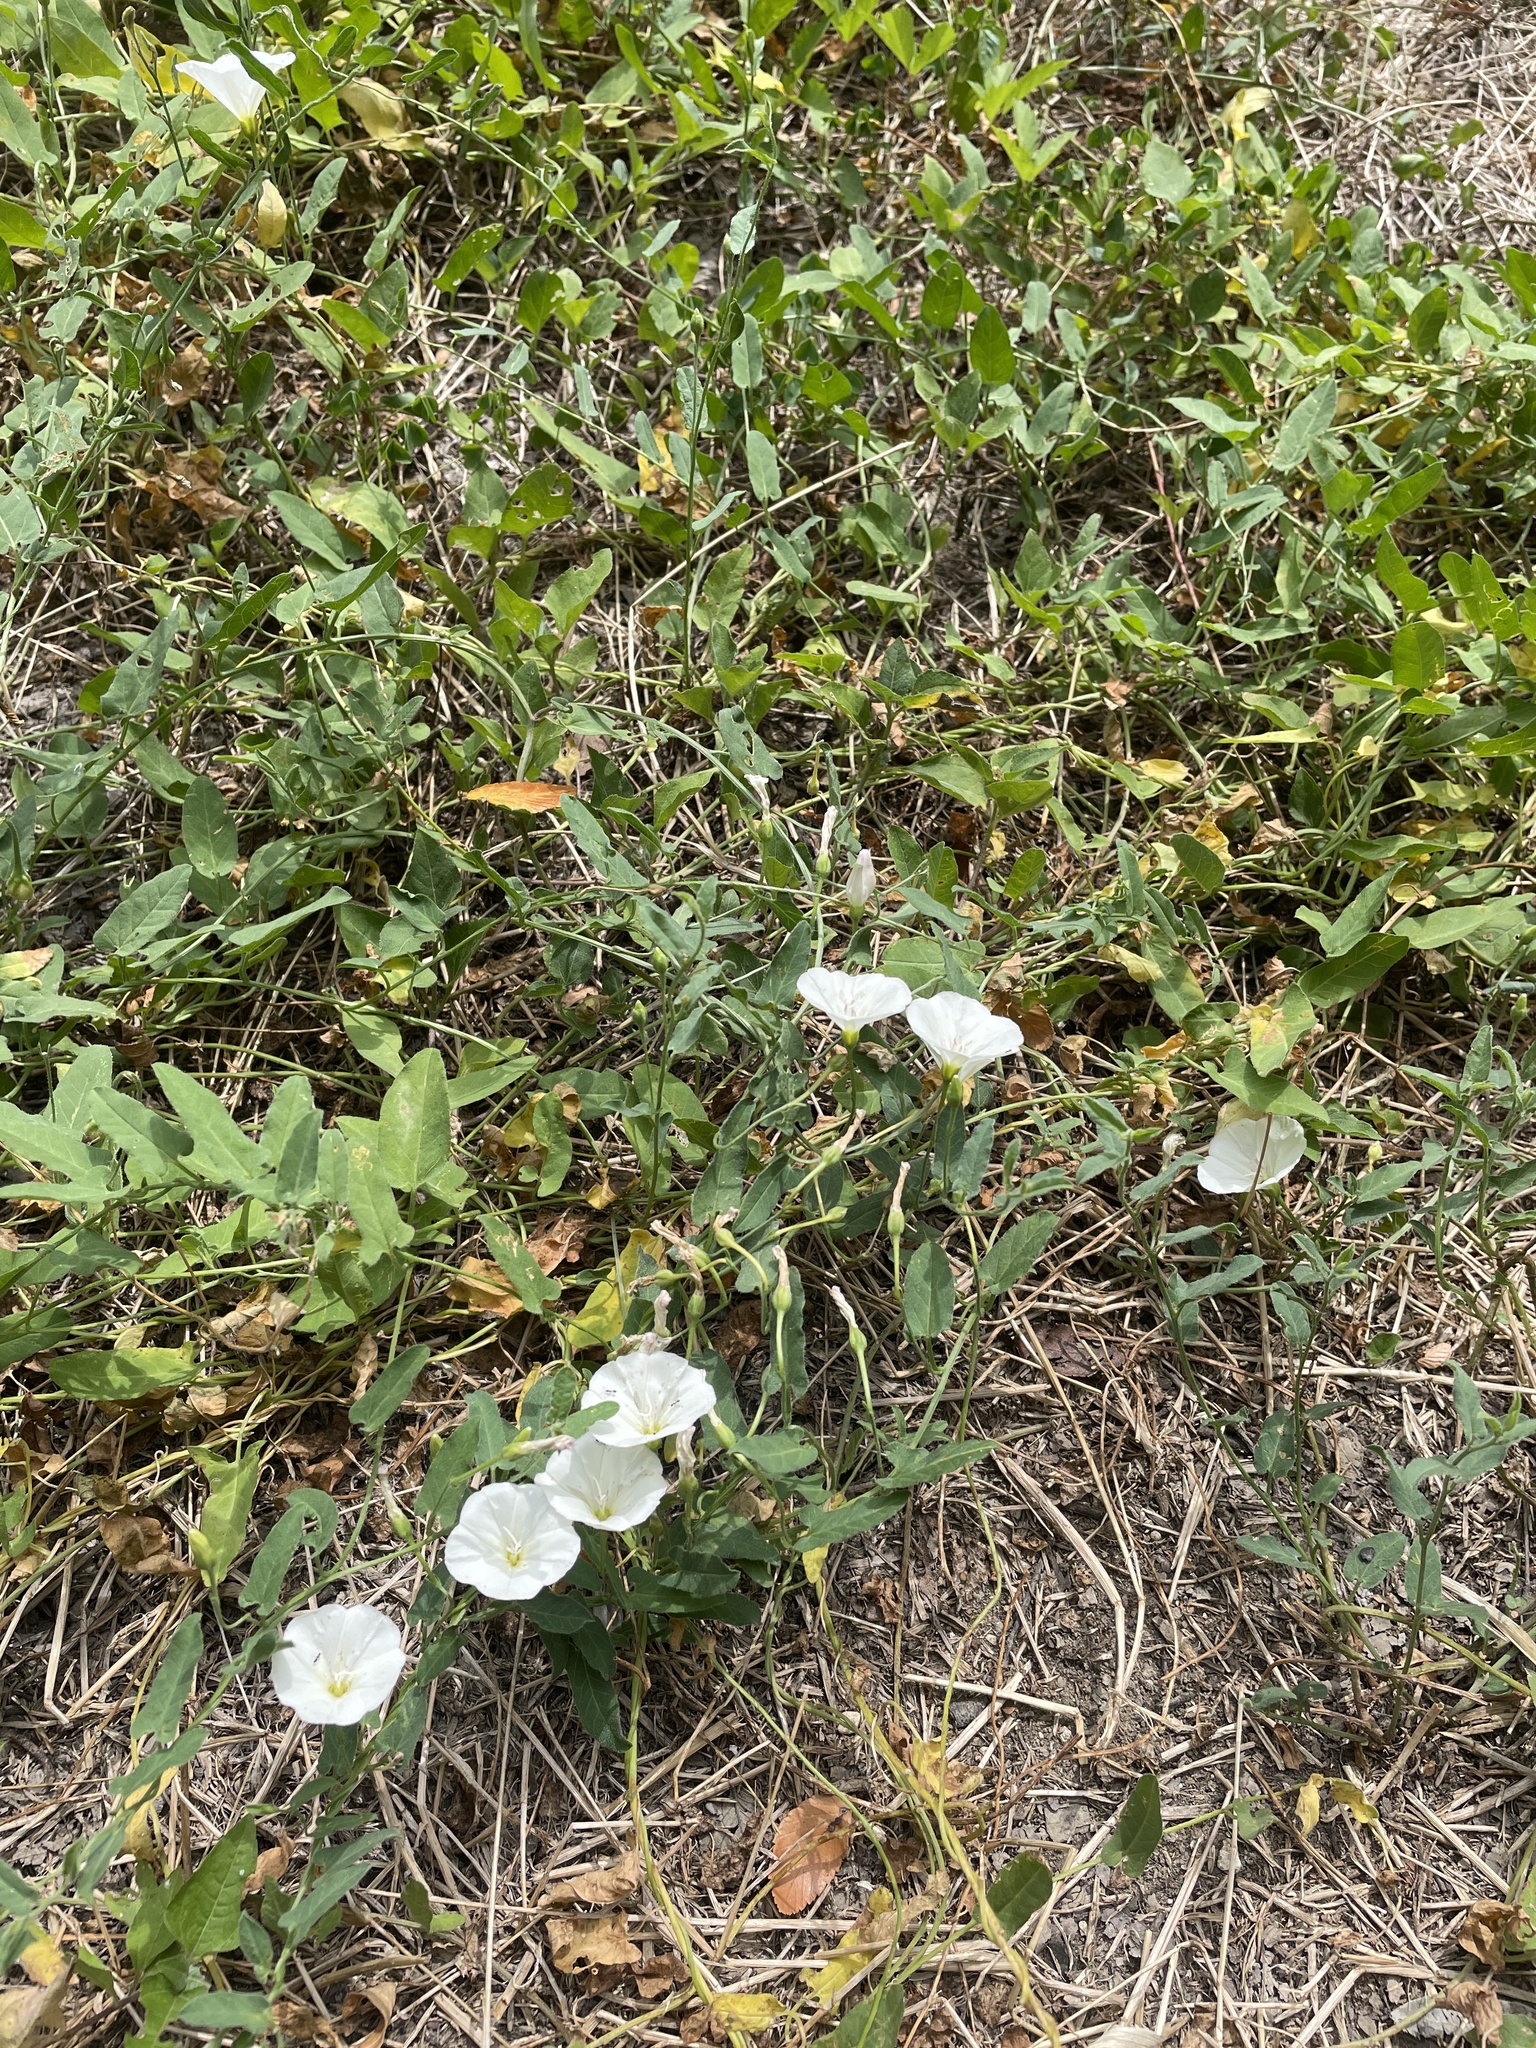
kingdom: Plantae
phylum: Tracheophyta
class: Magnoliopsida
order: Solanales
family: Convolvulaceae
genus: Convolvulus
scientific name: Convolvulus arvensis
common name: Field bindweed
